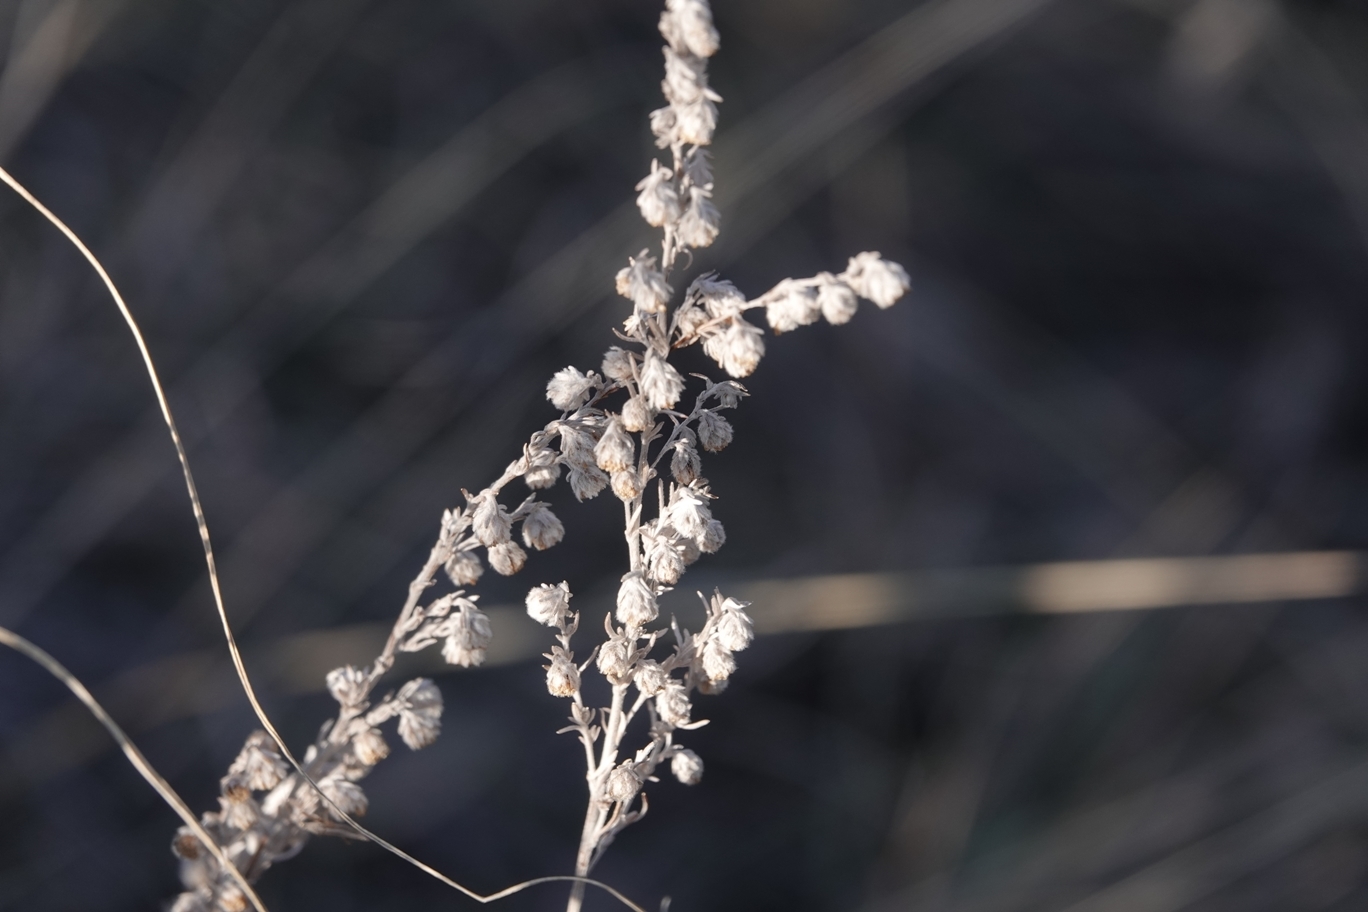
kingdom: Plantae
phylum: Tracheophyta
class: Magnoliopsida
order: Asterales
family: Asteraceae
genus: Artemisia
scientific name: Artemisia frigida
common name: Prairie sagewort
